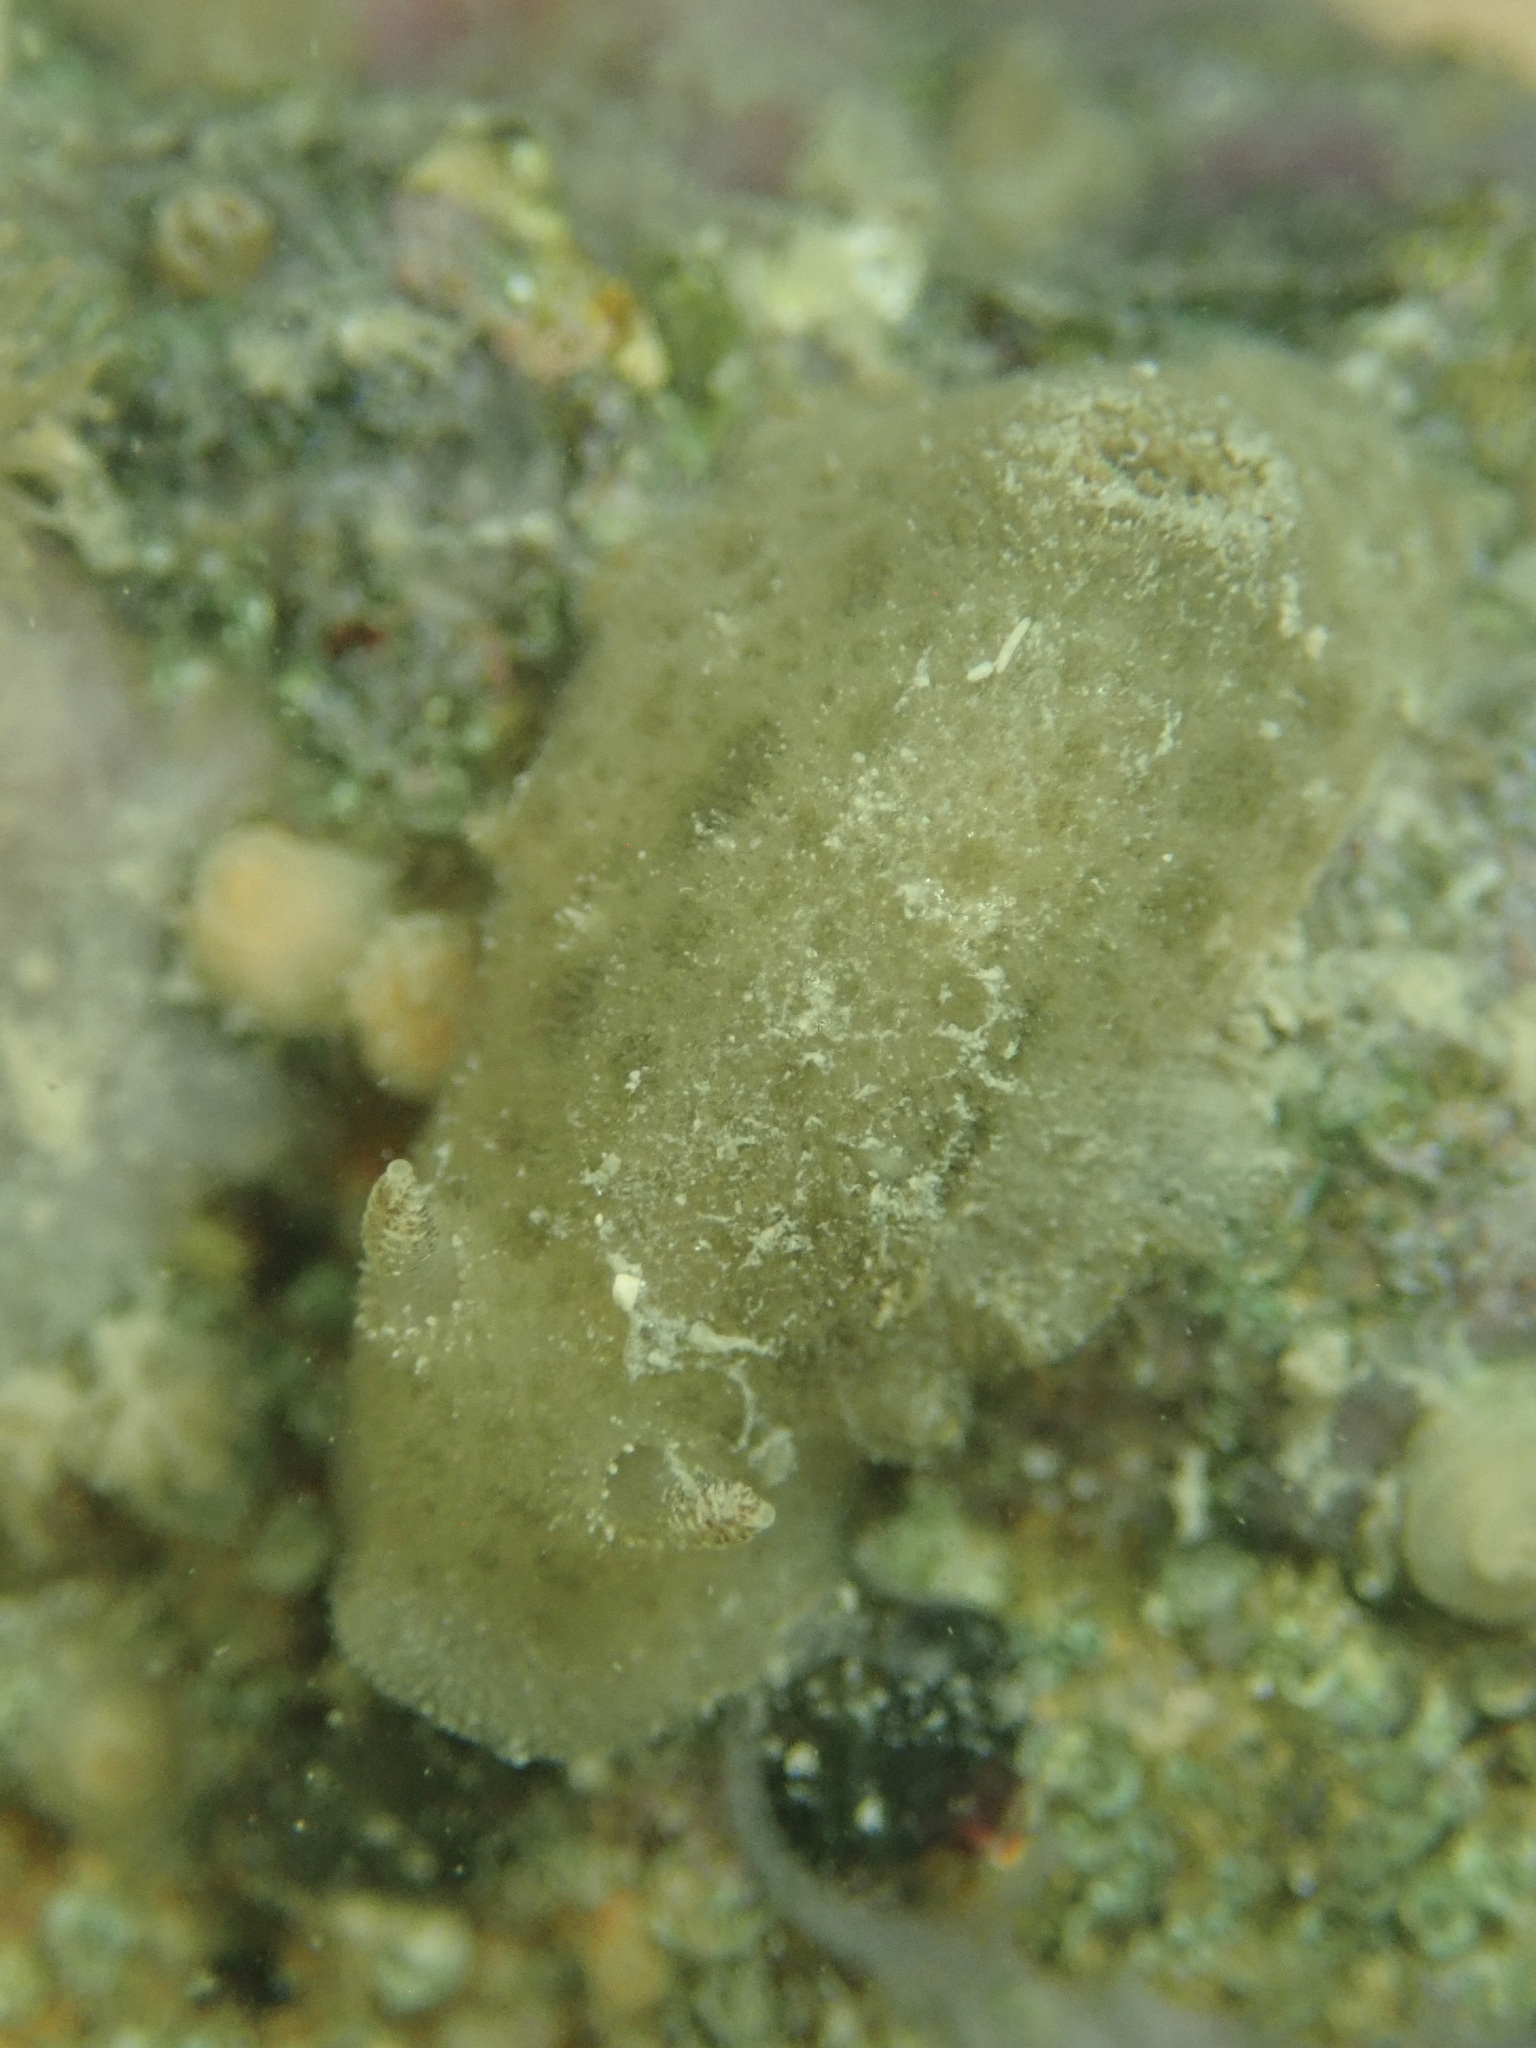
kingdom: Animalia
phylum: Mollusca
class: Gastropoda
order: Nudibranchia
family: Discodorididae
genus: Jorunna
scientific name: Jorunna osae
